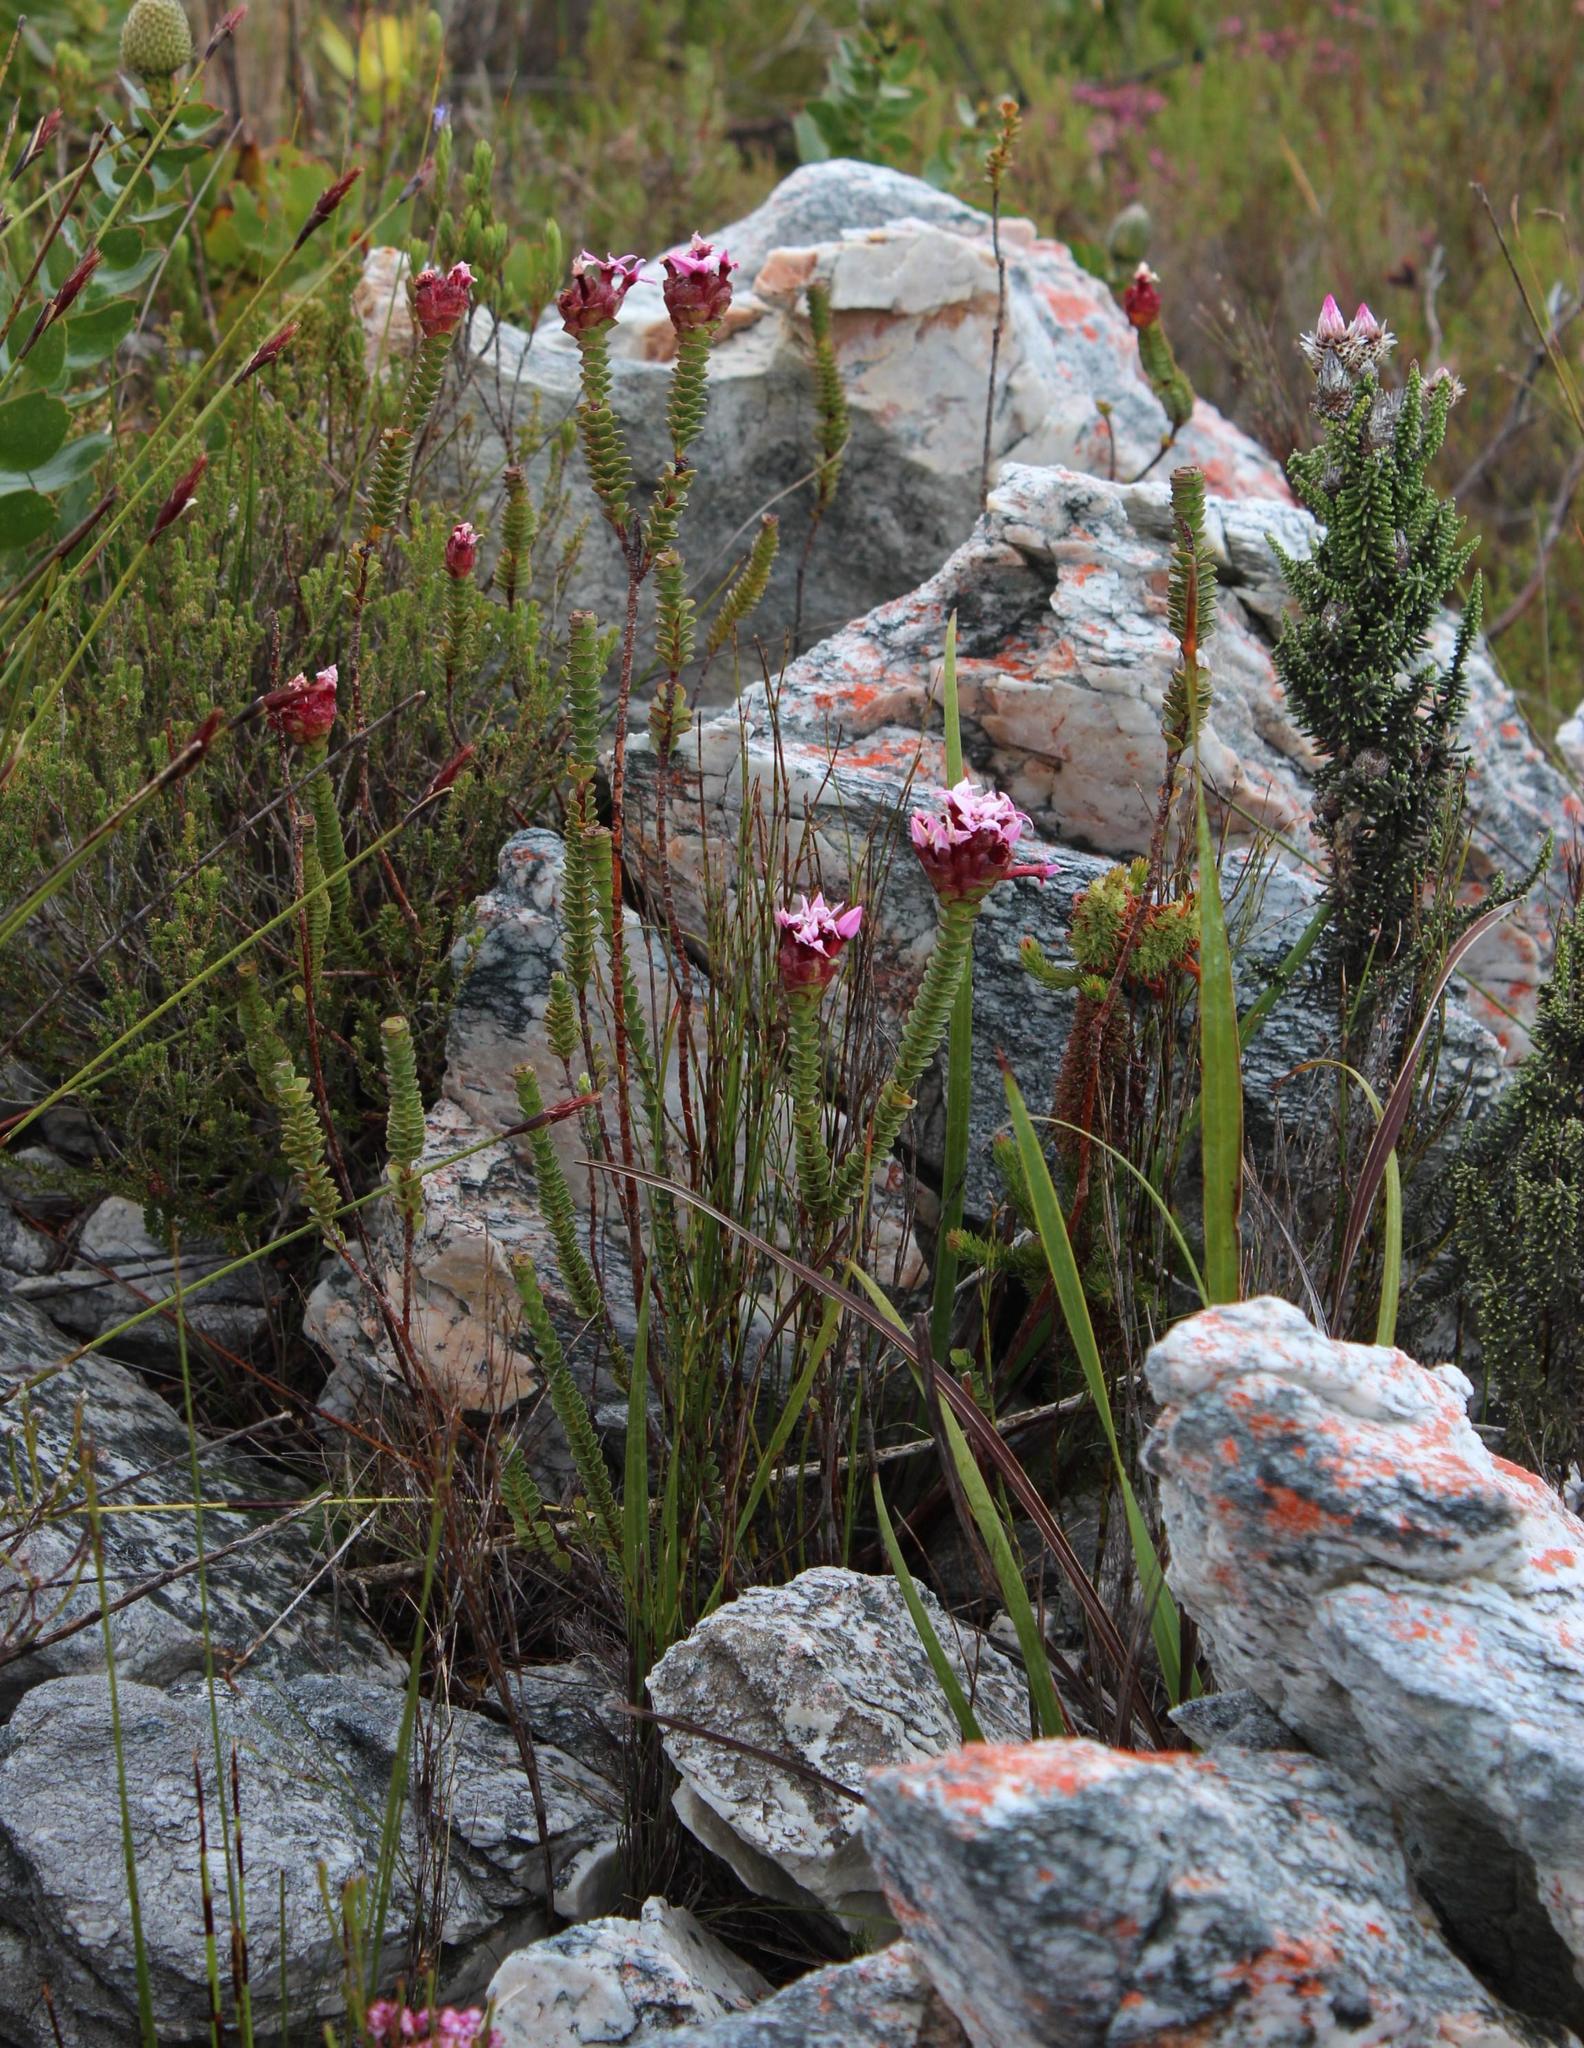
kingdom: Plantae
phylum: Tracheophyta
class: Magnoliopsida
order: Myrtales
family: Penaeaceae
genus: Sonderothamnus
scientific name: Sonderothamnus speciosus
